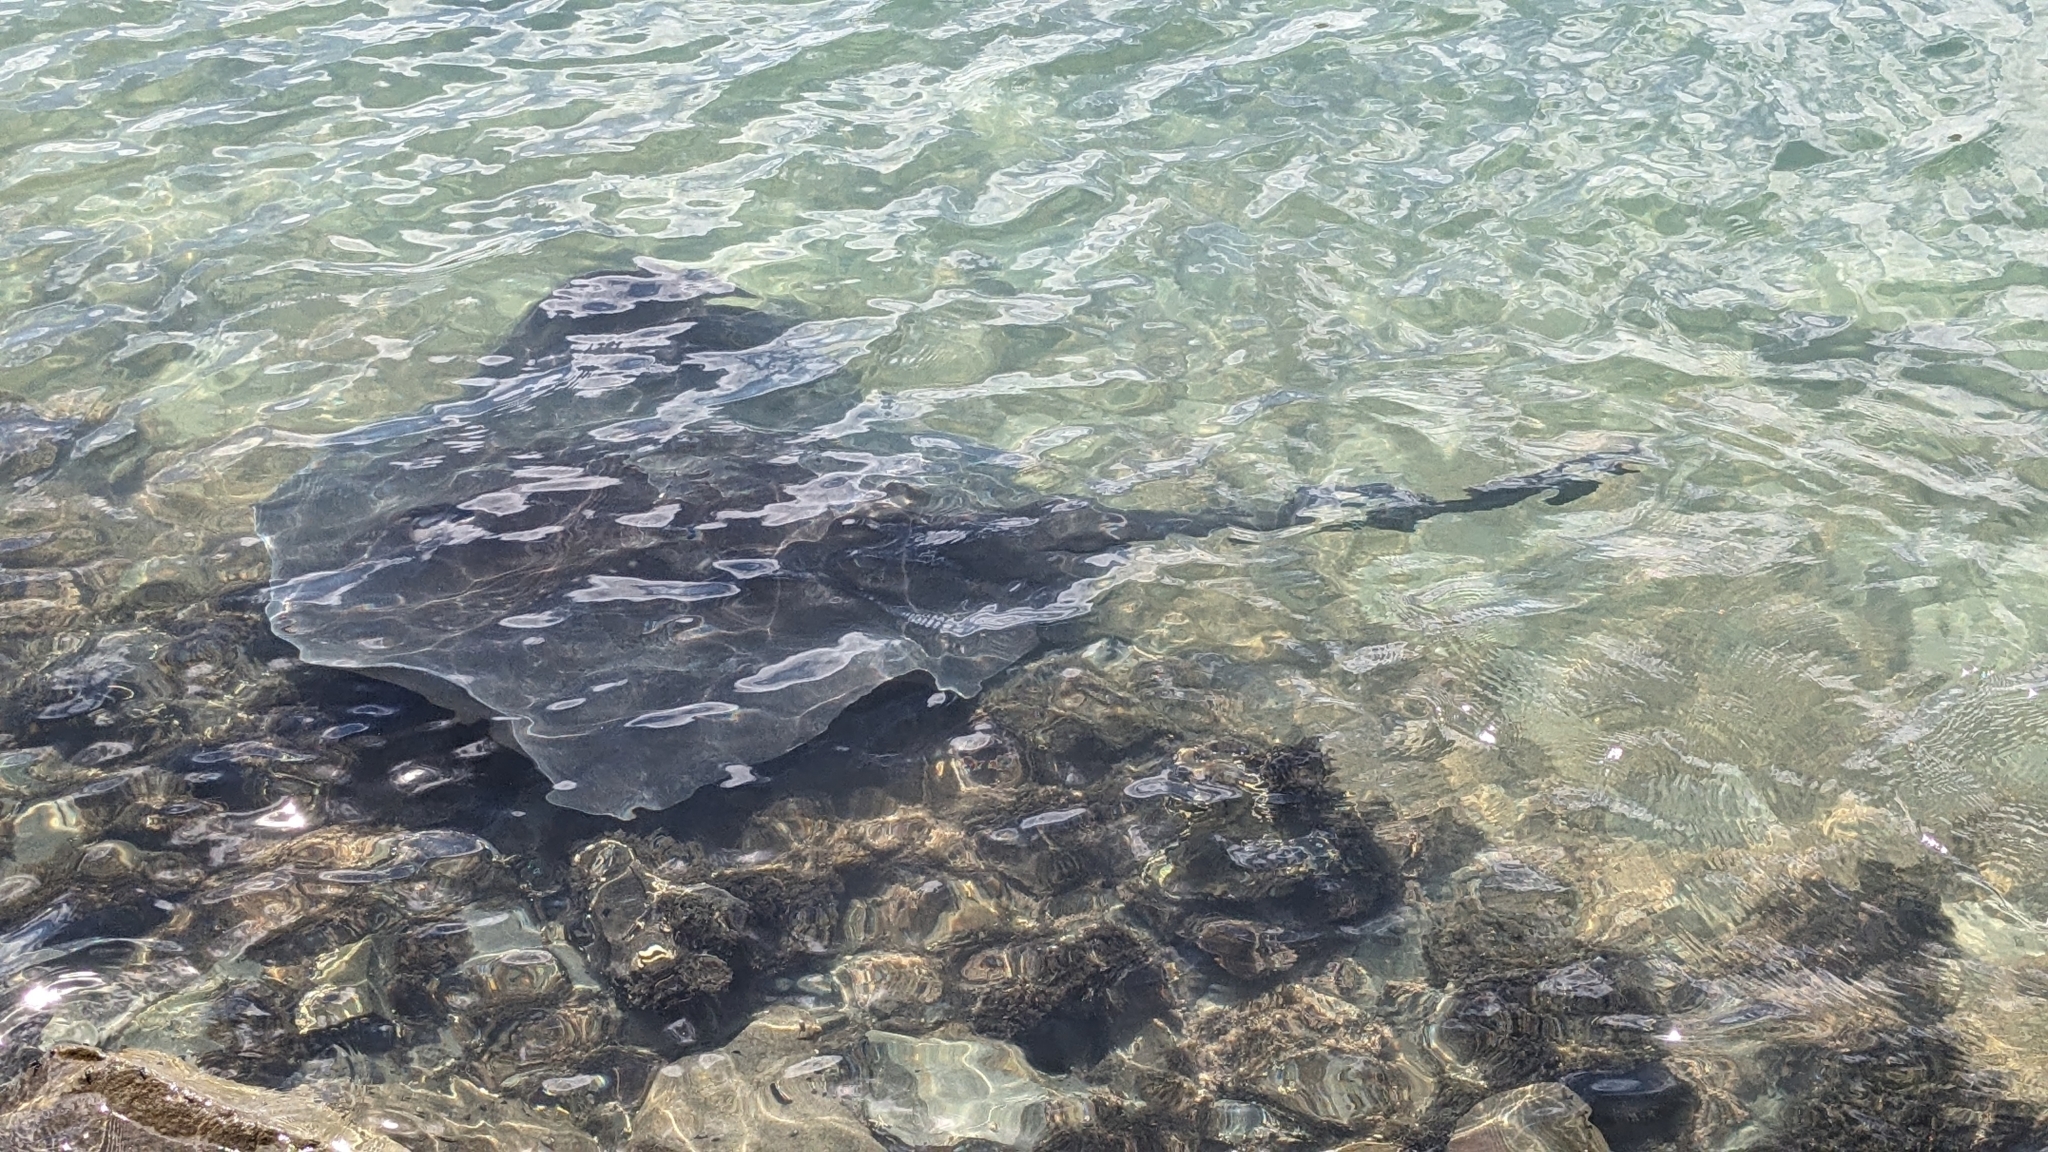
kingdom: Animalia
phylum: Chordata
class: Elasmobranchii
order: Myliobatiformes
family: Dasyatidae
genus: Bathytoshia
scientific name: Bathytoshia brevicaudata
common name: Short-tail stingray
